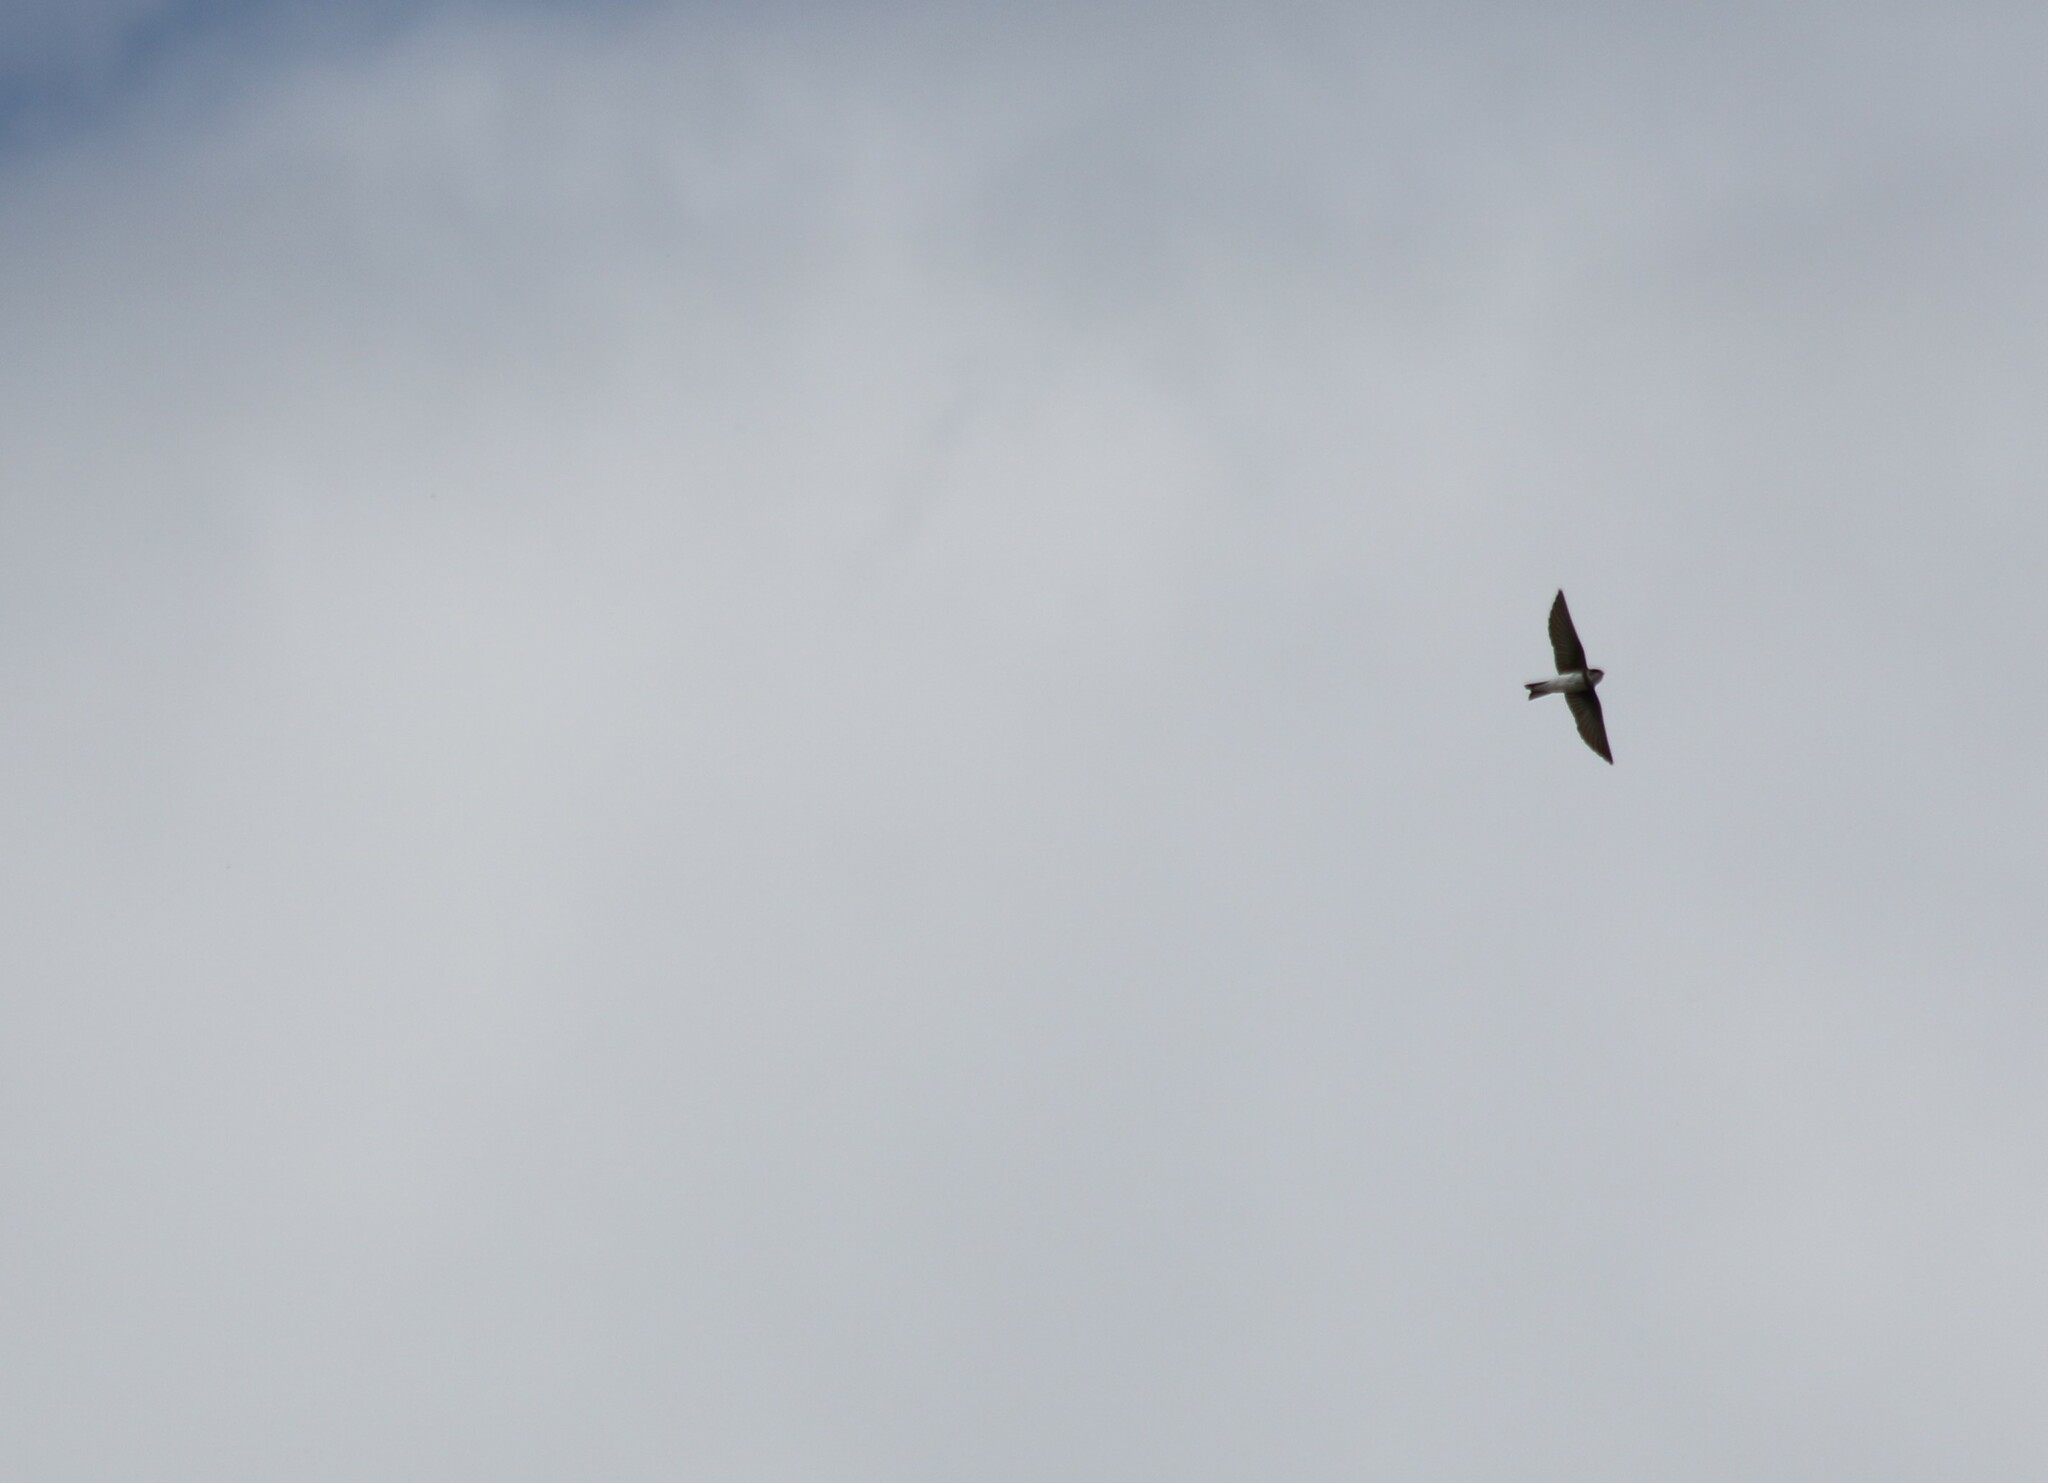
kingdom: Animalia
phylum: Chordata
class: Aves
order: Passeriformes
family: Hirundinidae
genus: Riparia
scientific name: Riparia riparia
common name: Sand martin
